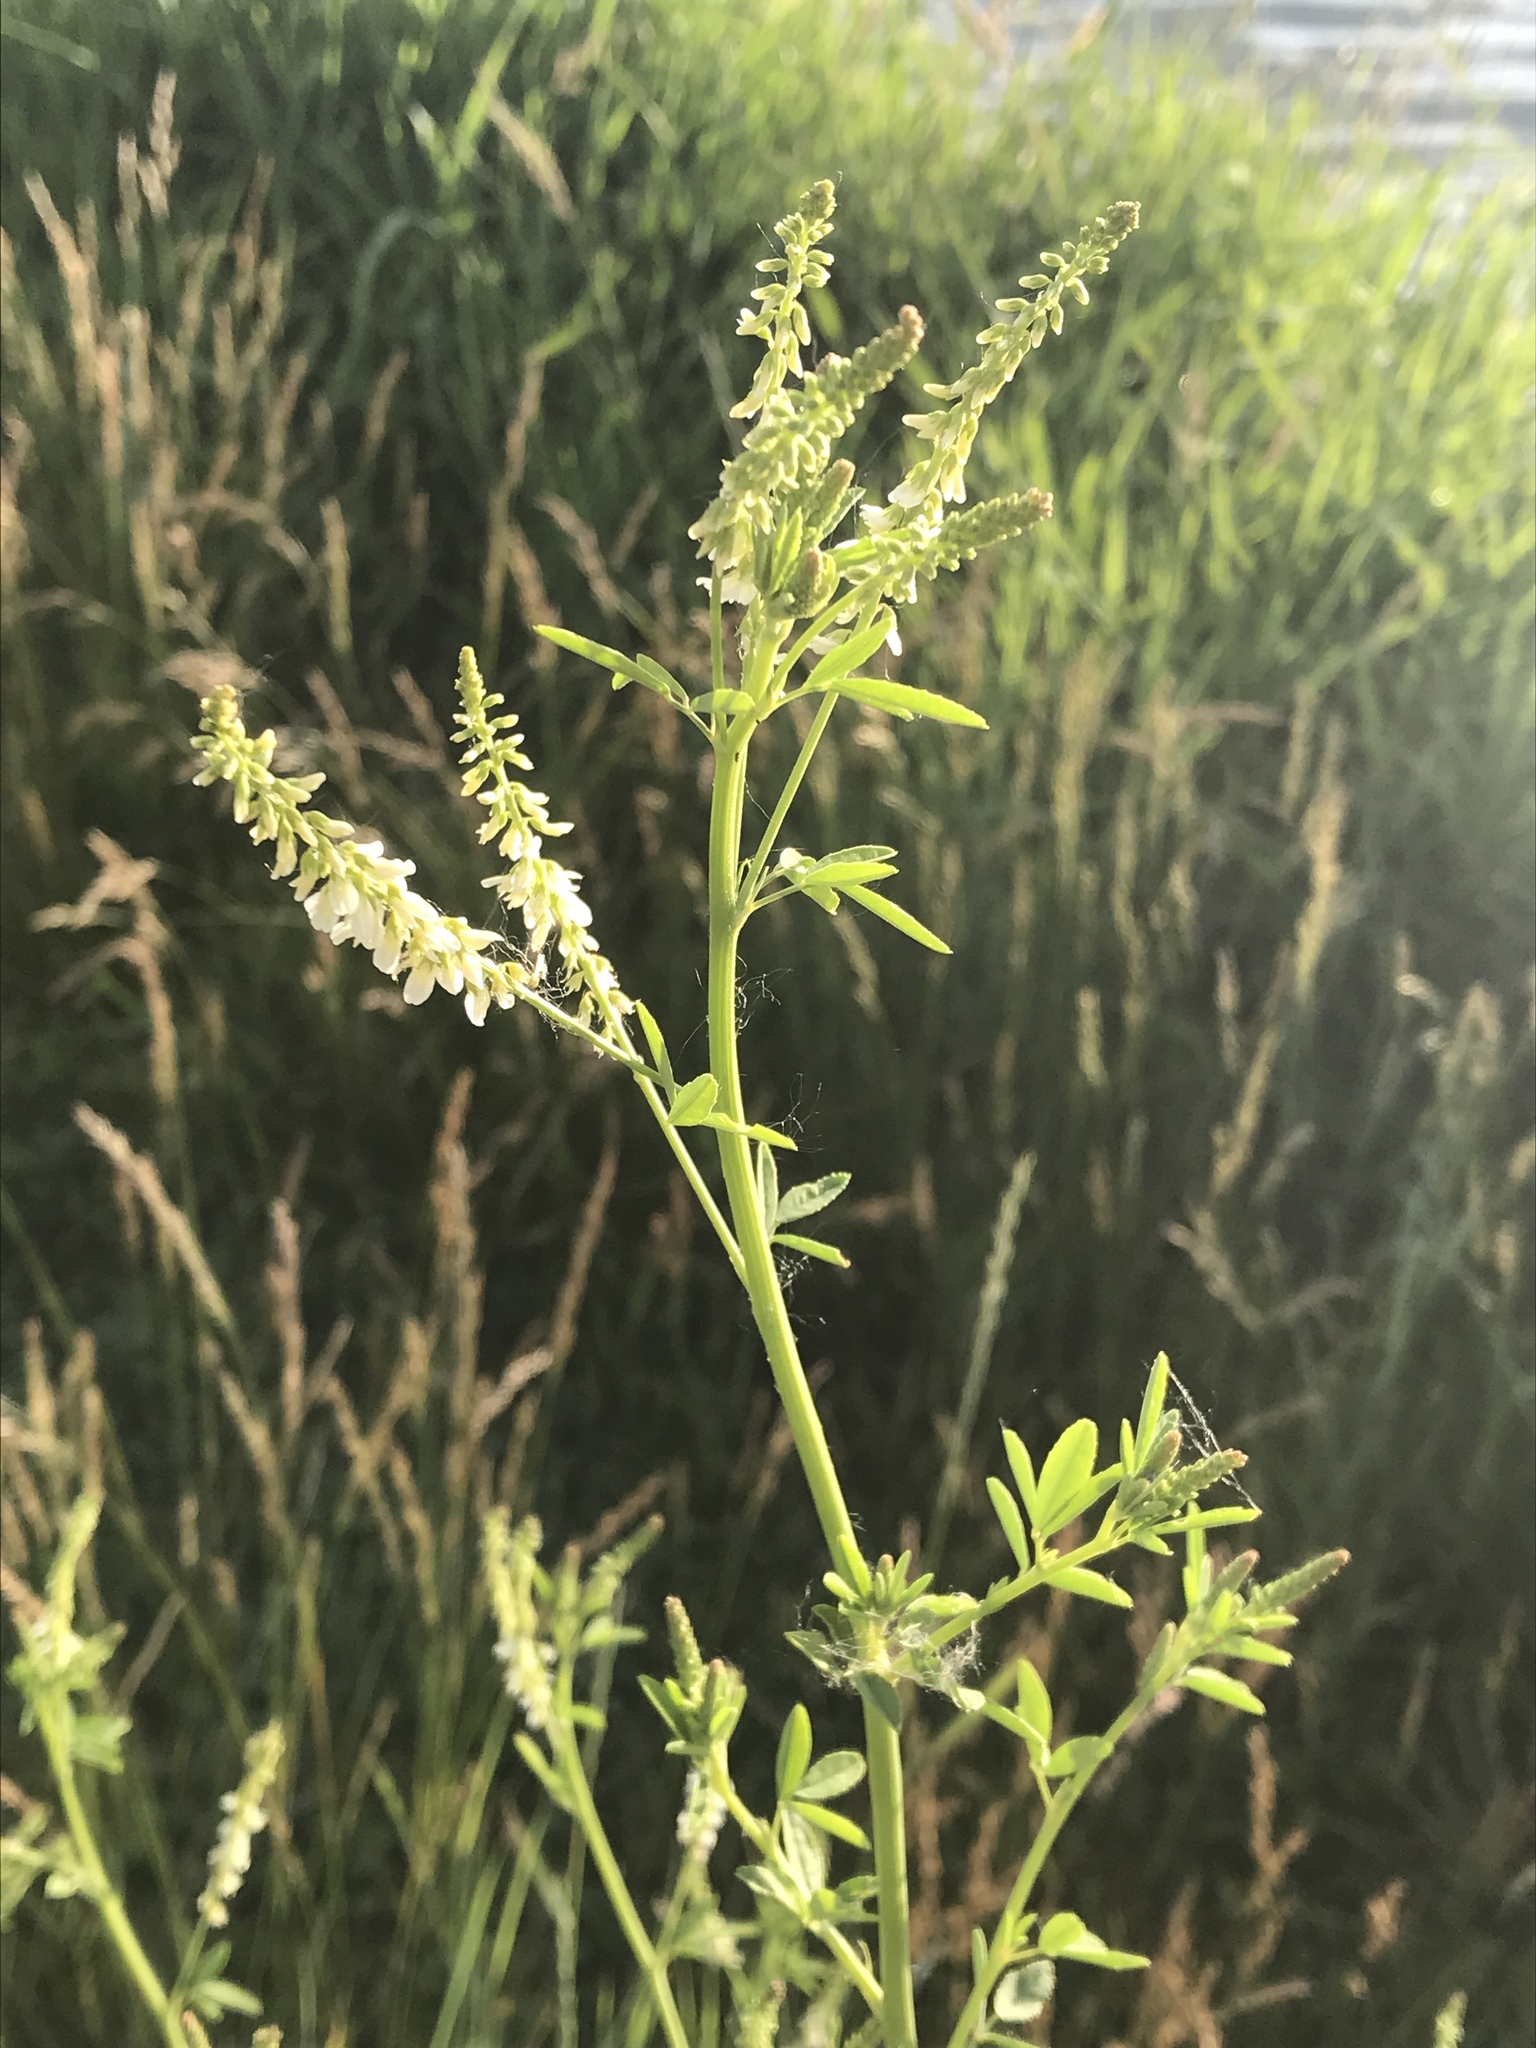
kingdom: Plantae
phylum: Tracheophyta
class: Magnoliopsida
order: Fabales
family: Fabaceae
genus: Melilotus
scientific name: Melilotus albus
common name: White melilot
